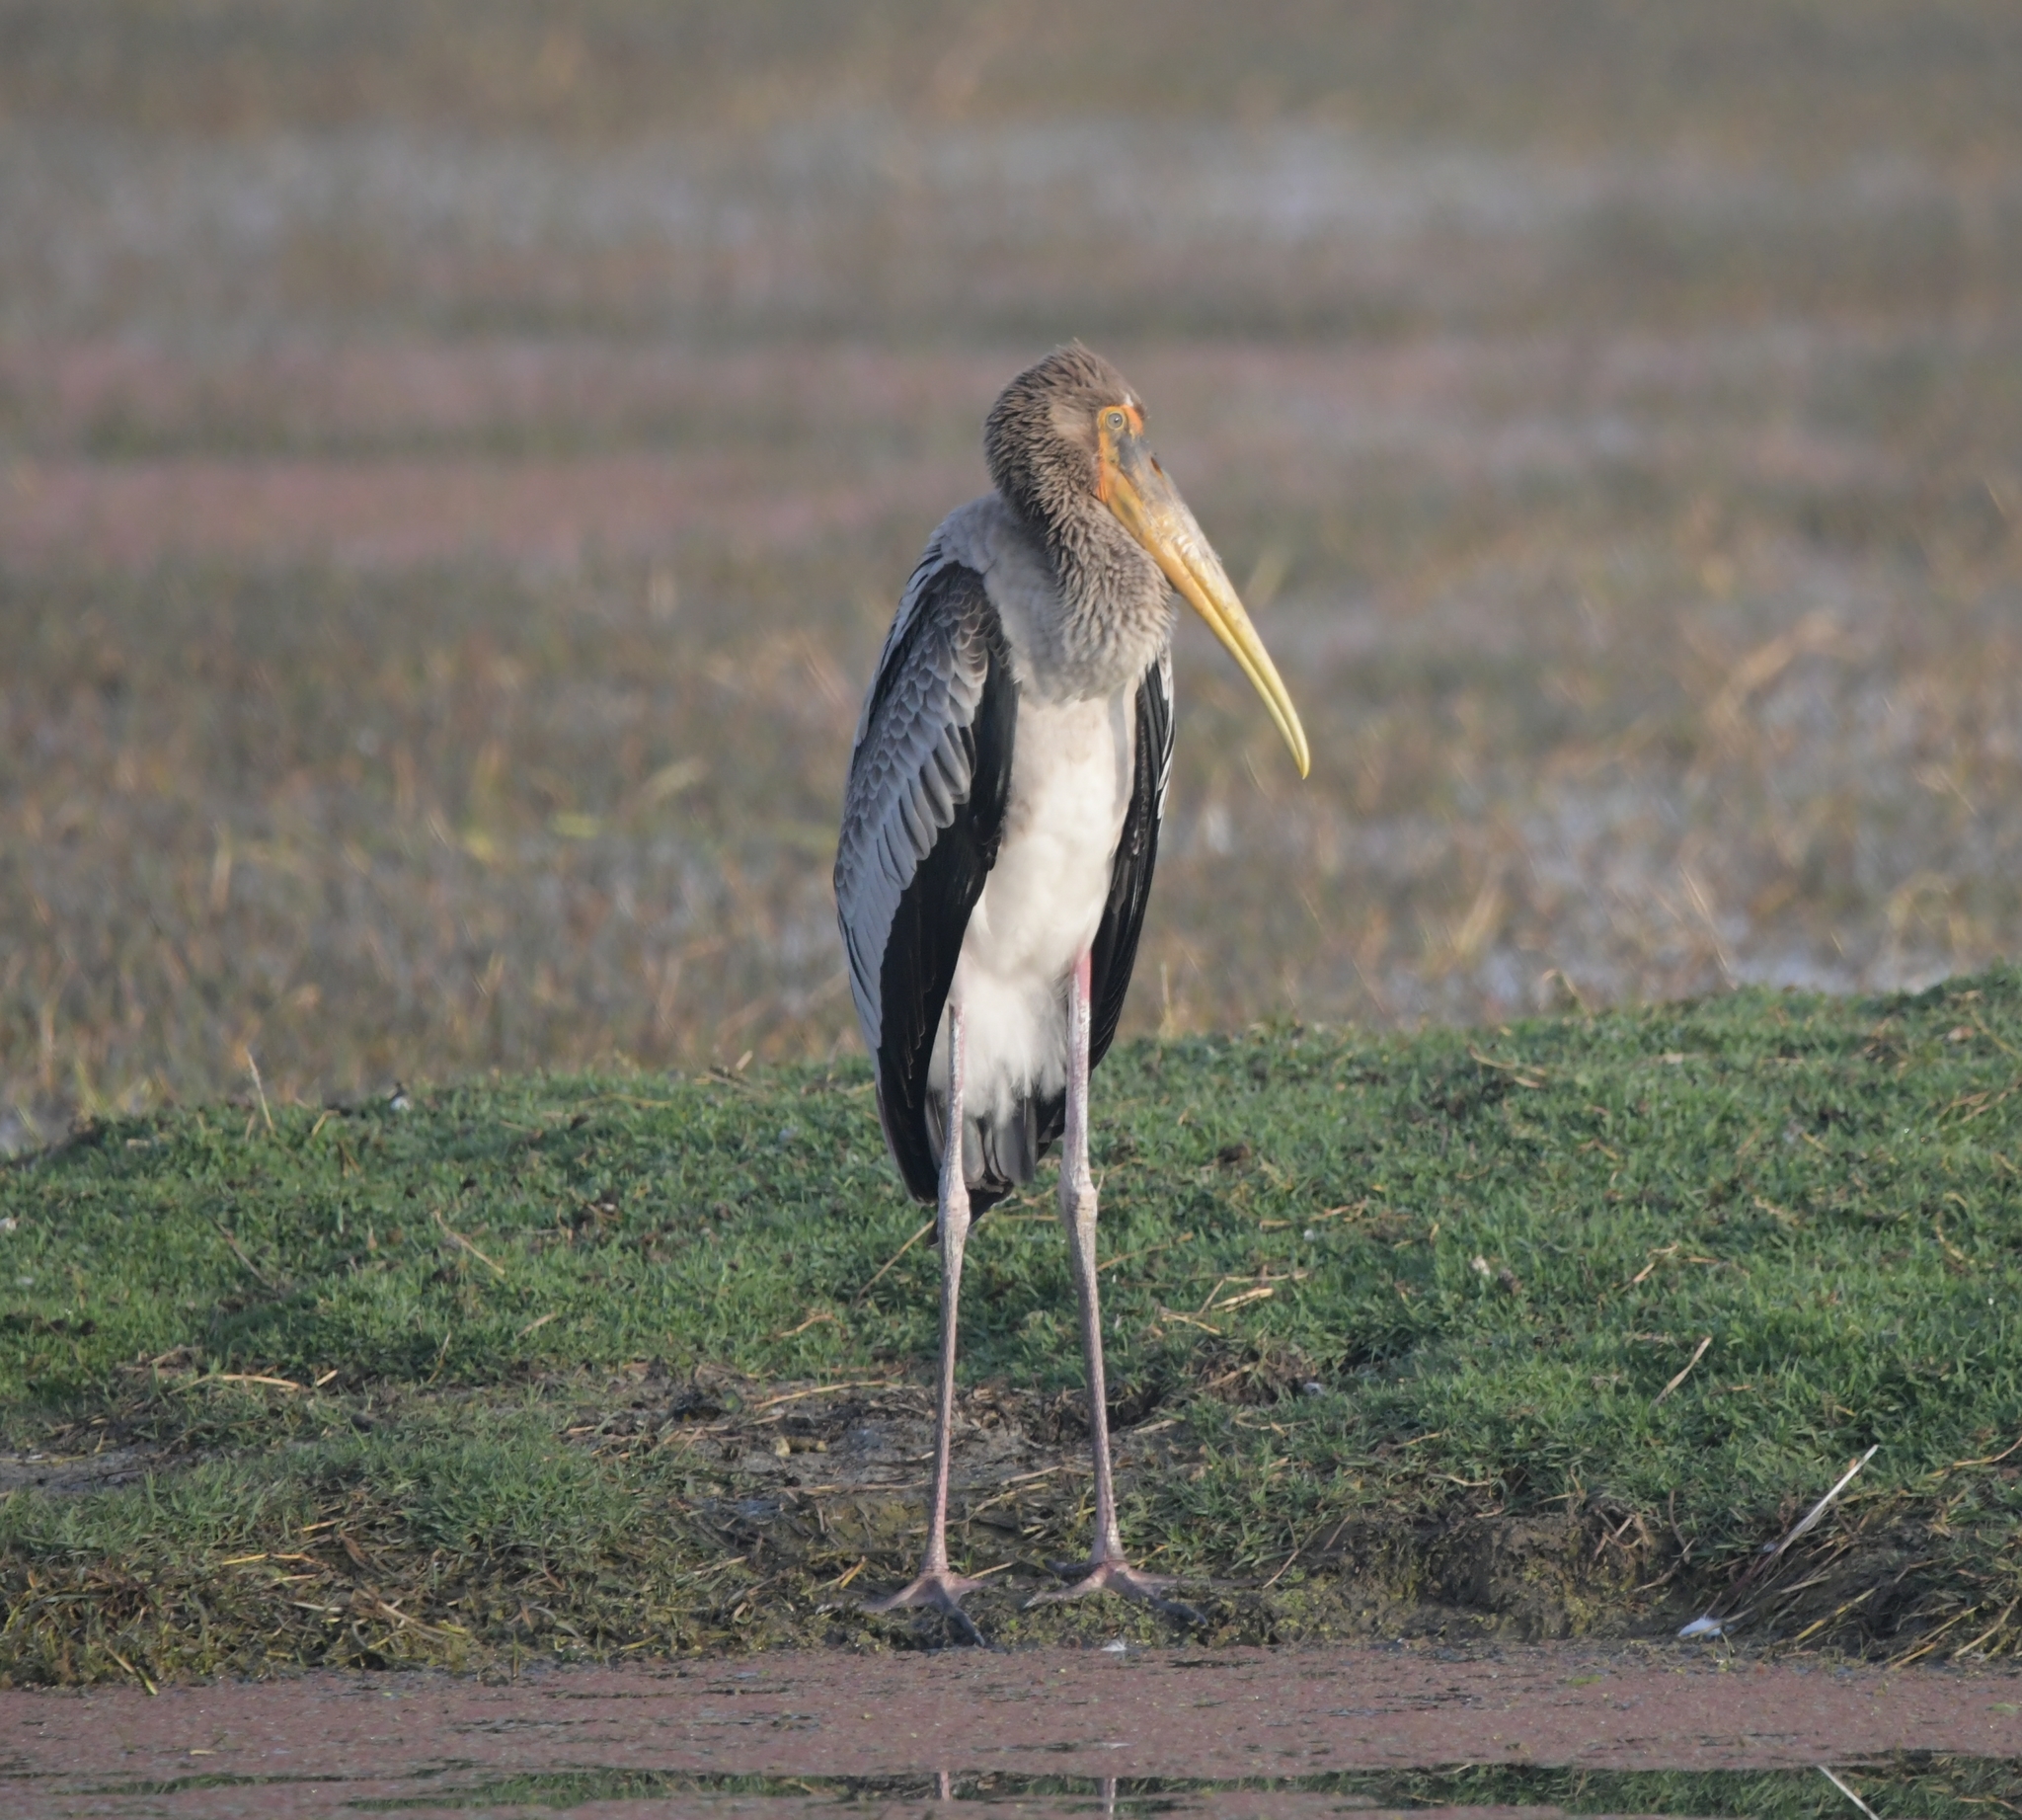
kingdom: Animalia
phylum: Chordata
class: Aves
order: Ciconiiformes
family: Ciconiidae
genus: Mycteria
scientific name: Mycteria leucocephala
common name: Painted stork
